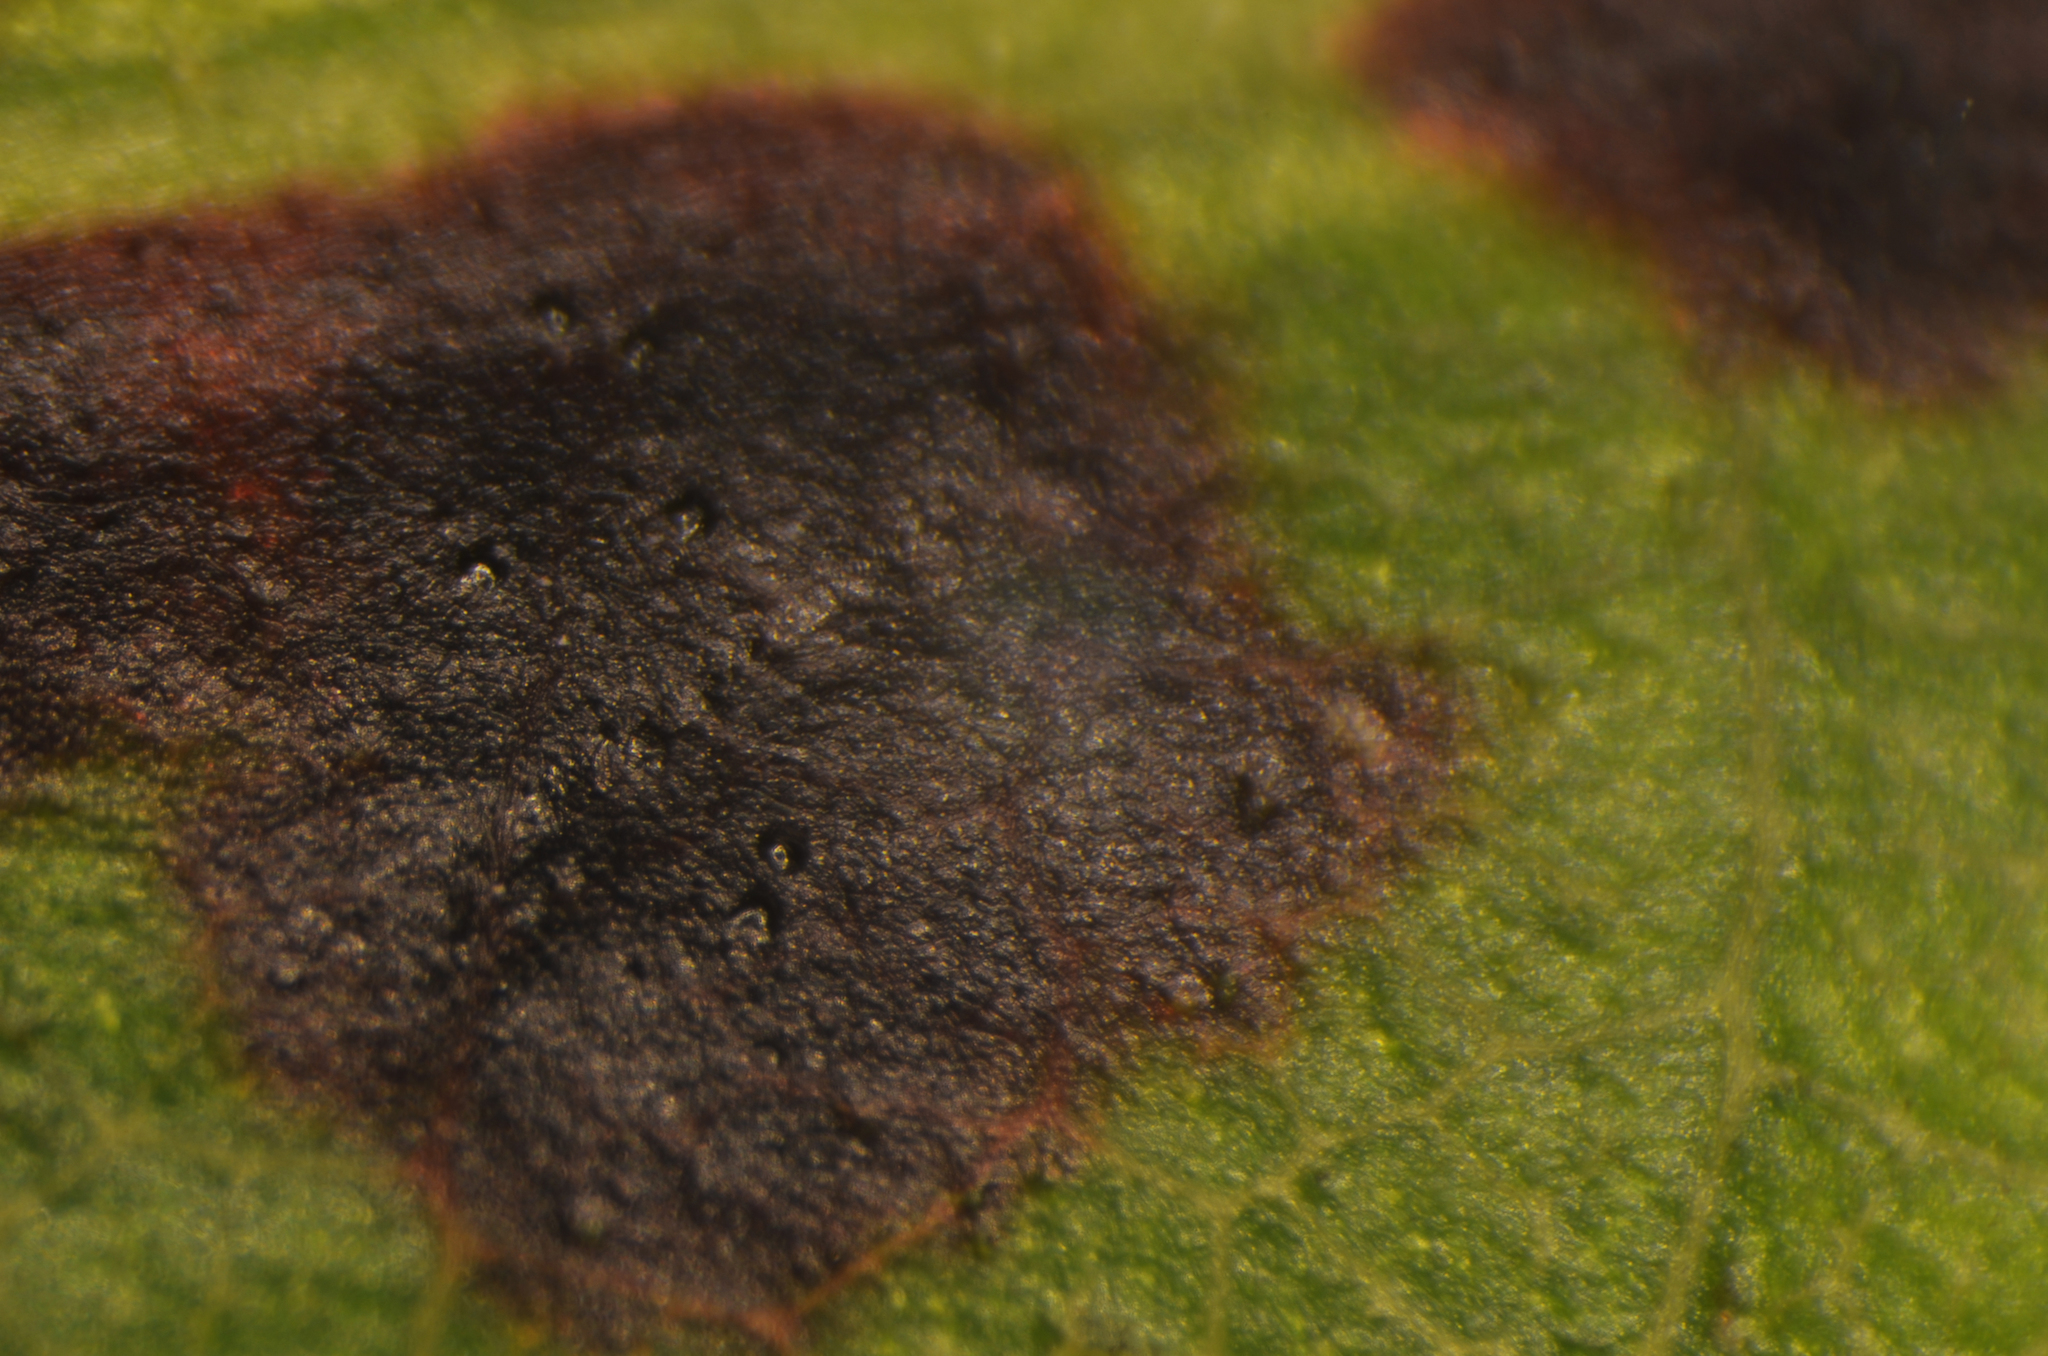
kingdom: Fungi
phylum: Ascomycota
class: Dothideomycetes
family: Vizellaceae
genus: Vizella
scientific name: Vizella tunicata
